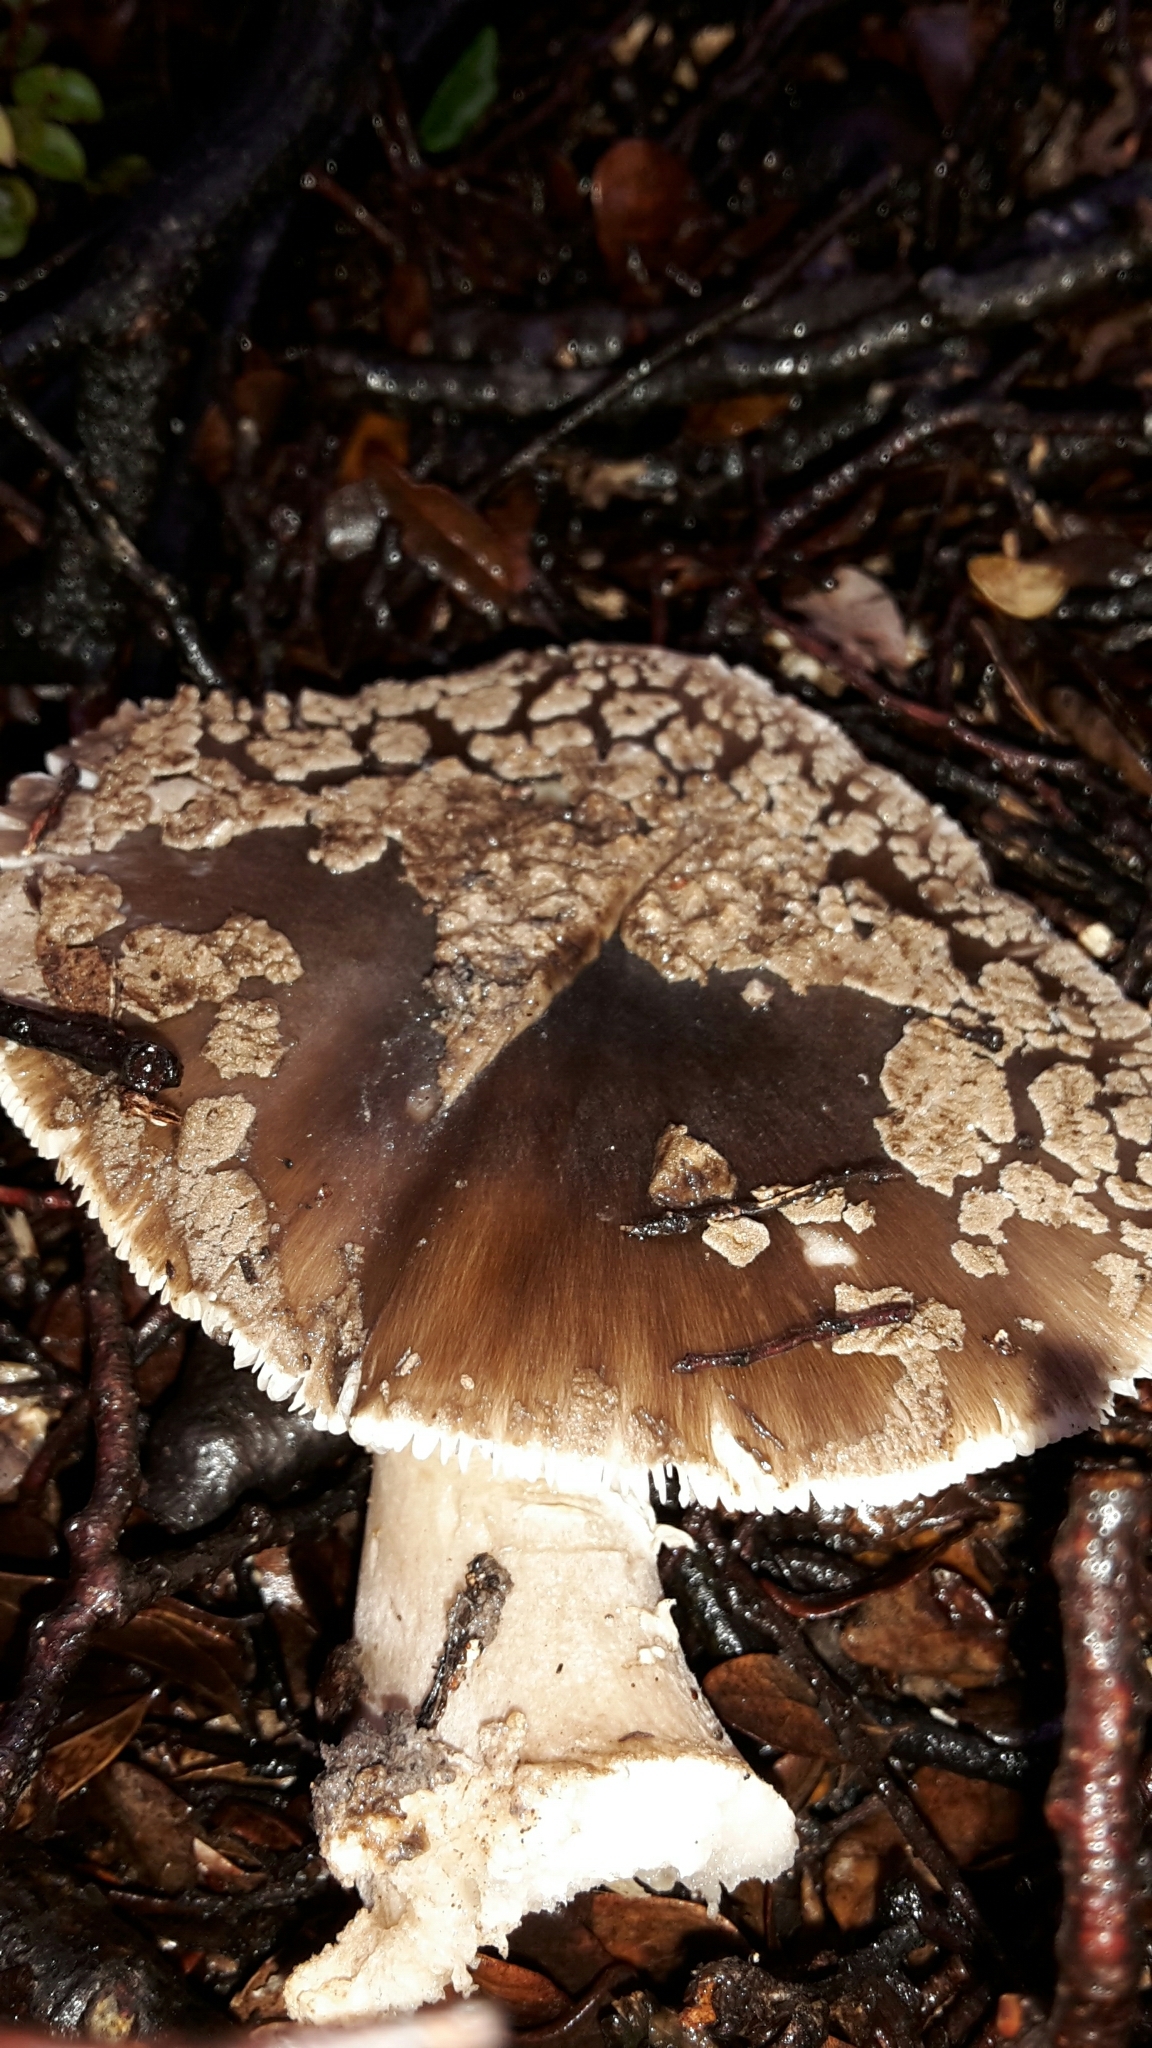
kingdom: Fungi
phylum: Basidiomycota
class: Agaricomycetes
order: Agaricales
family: Amanitaceae
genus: Amanita
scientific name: Amanita nothofagi
